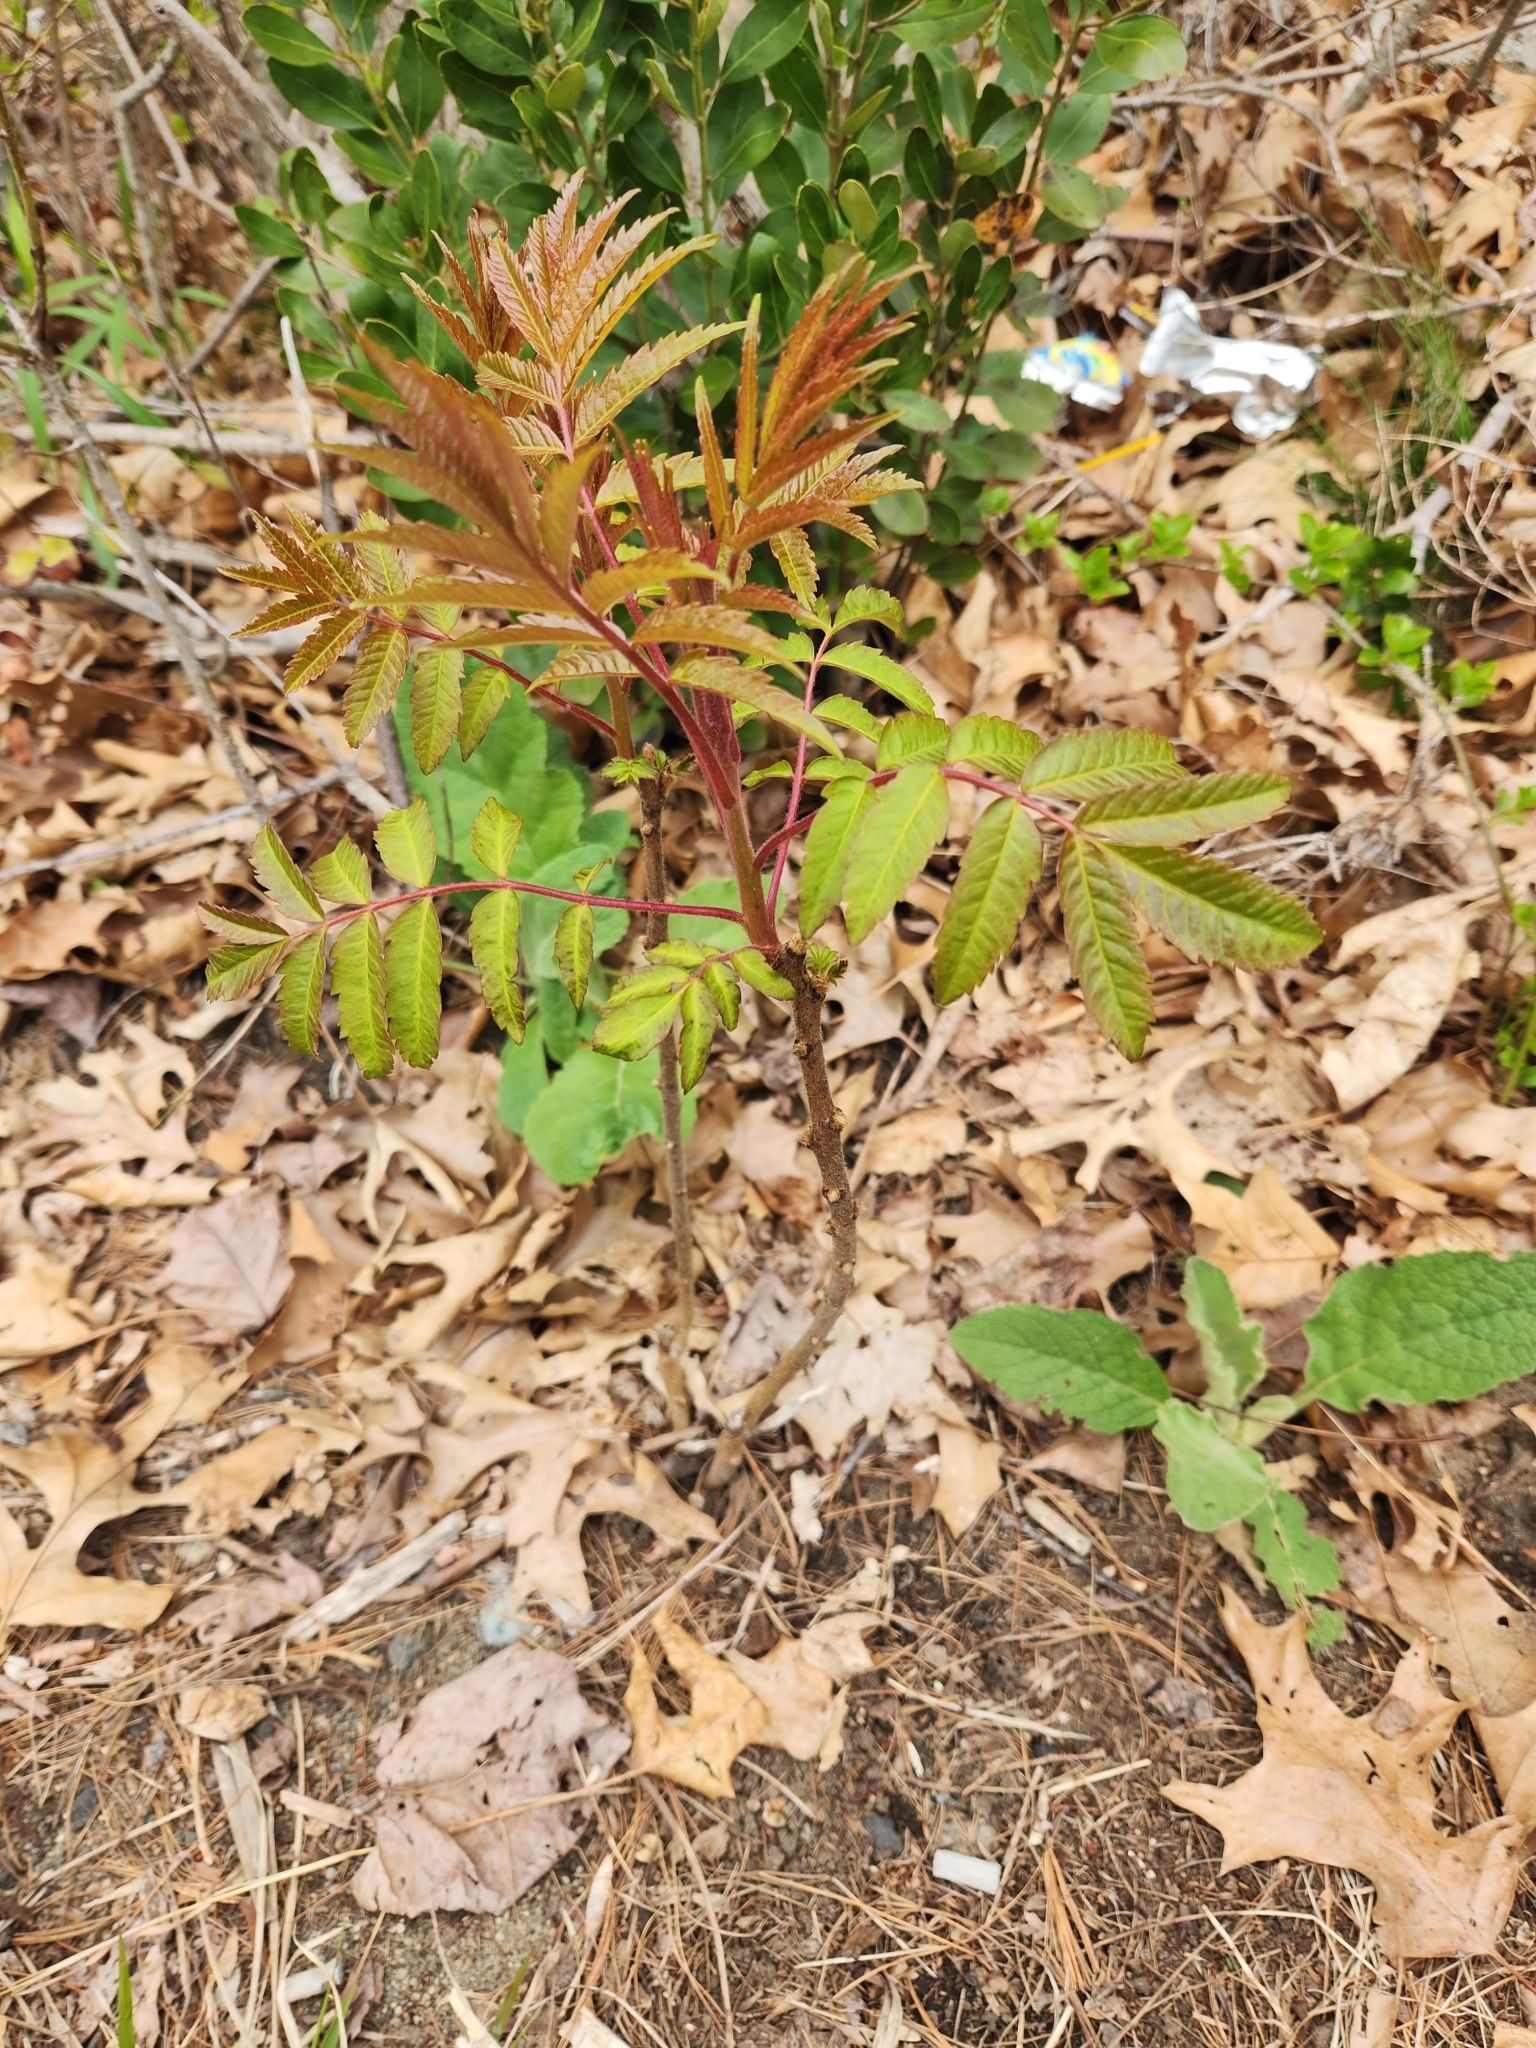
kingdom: Plantae
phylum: Tracheophyta
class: Magnoliopsida
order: Sapindales
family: Anacardiaceae
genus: Rhus
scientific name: Rhus typhina
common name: Staghorn sumac
